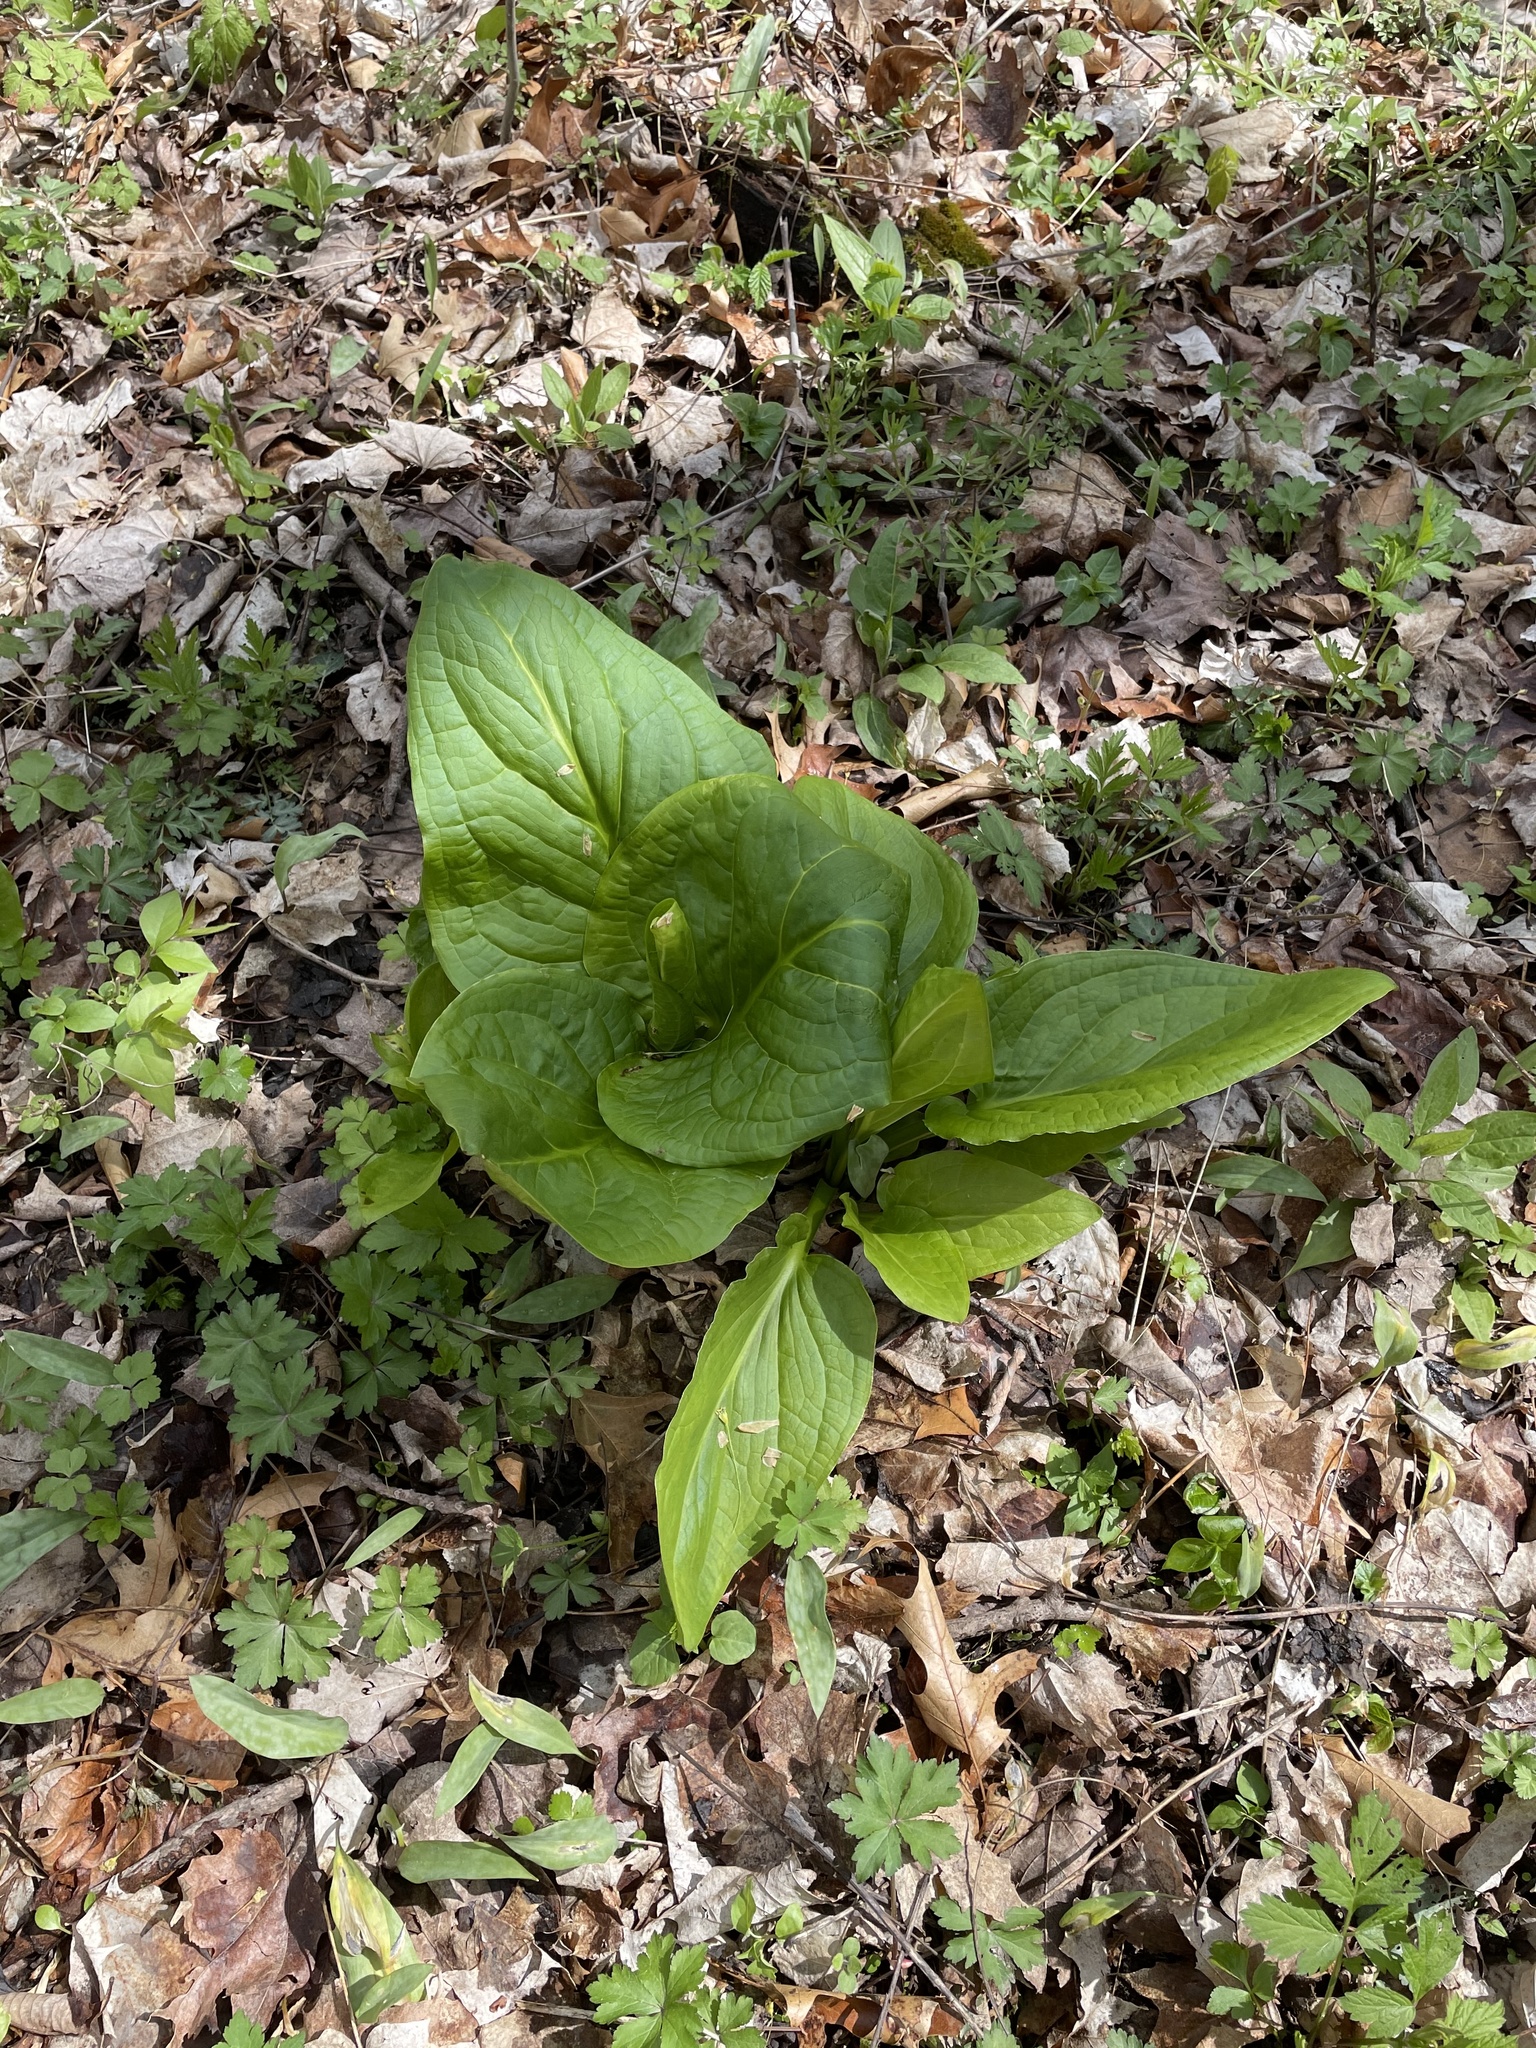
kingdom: Plantae
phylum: Tracheophyta
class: Liliopsida
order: Alismatales
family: Araceae
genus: Symplocarpus
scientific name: Symplocarpus foetidus
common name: Eastern skunk cabbage
